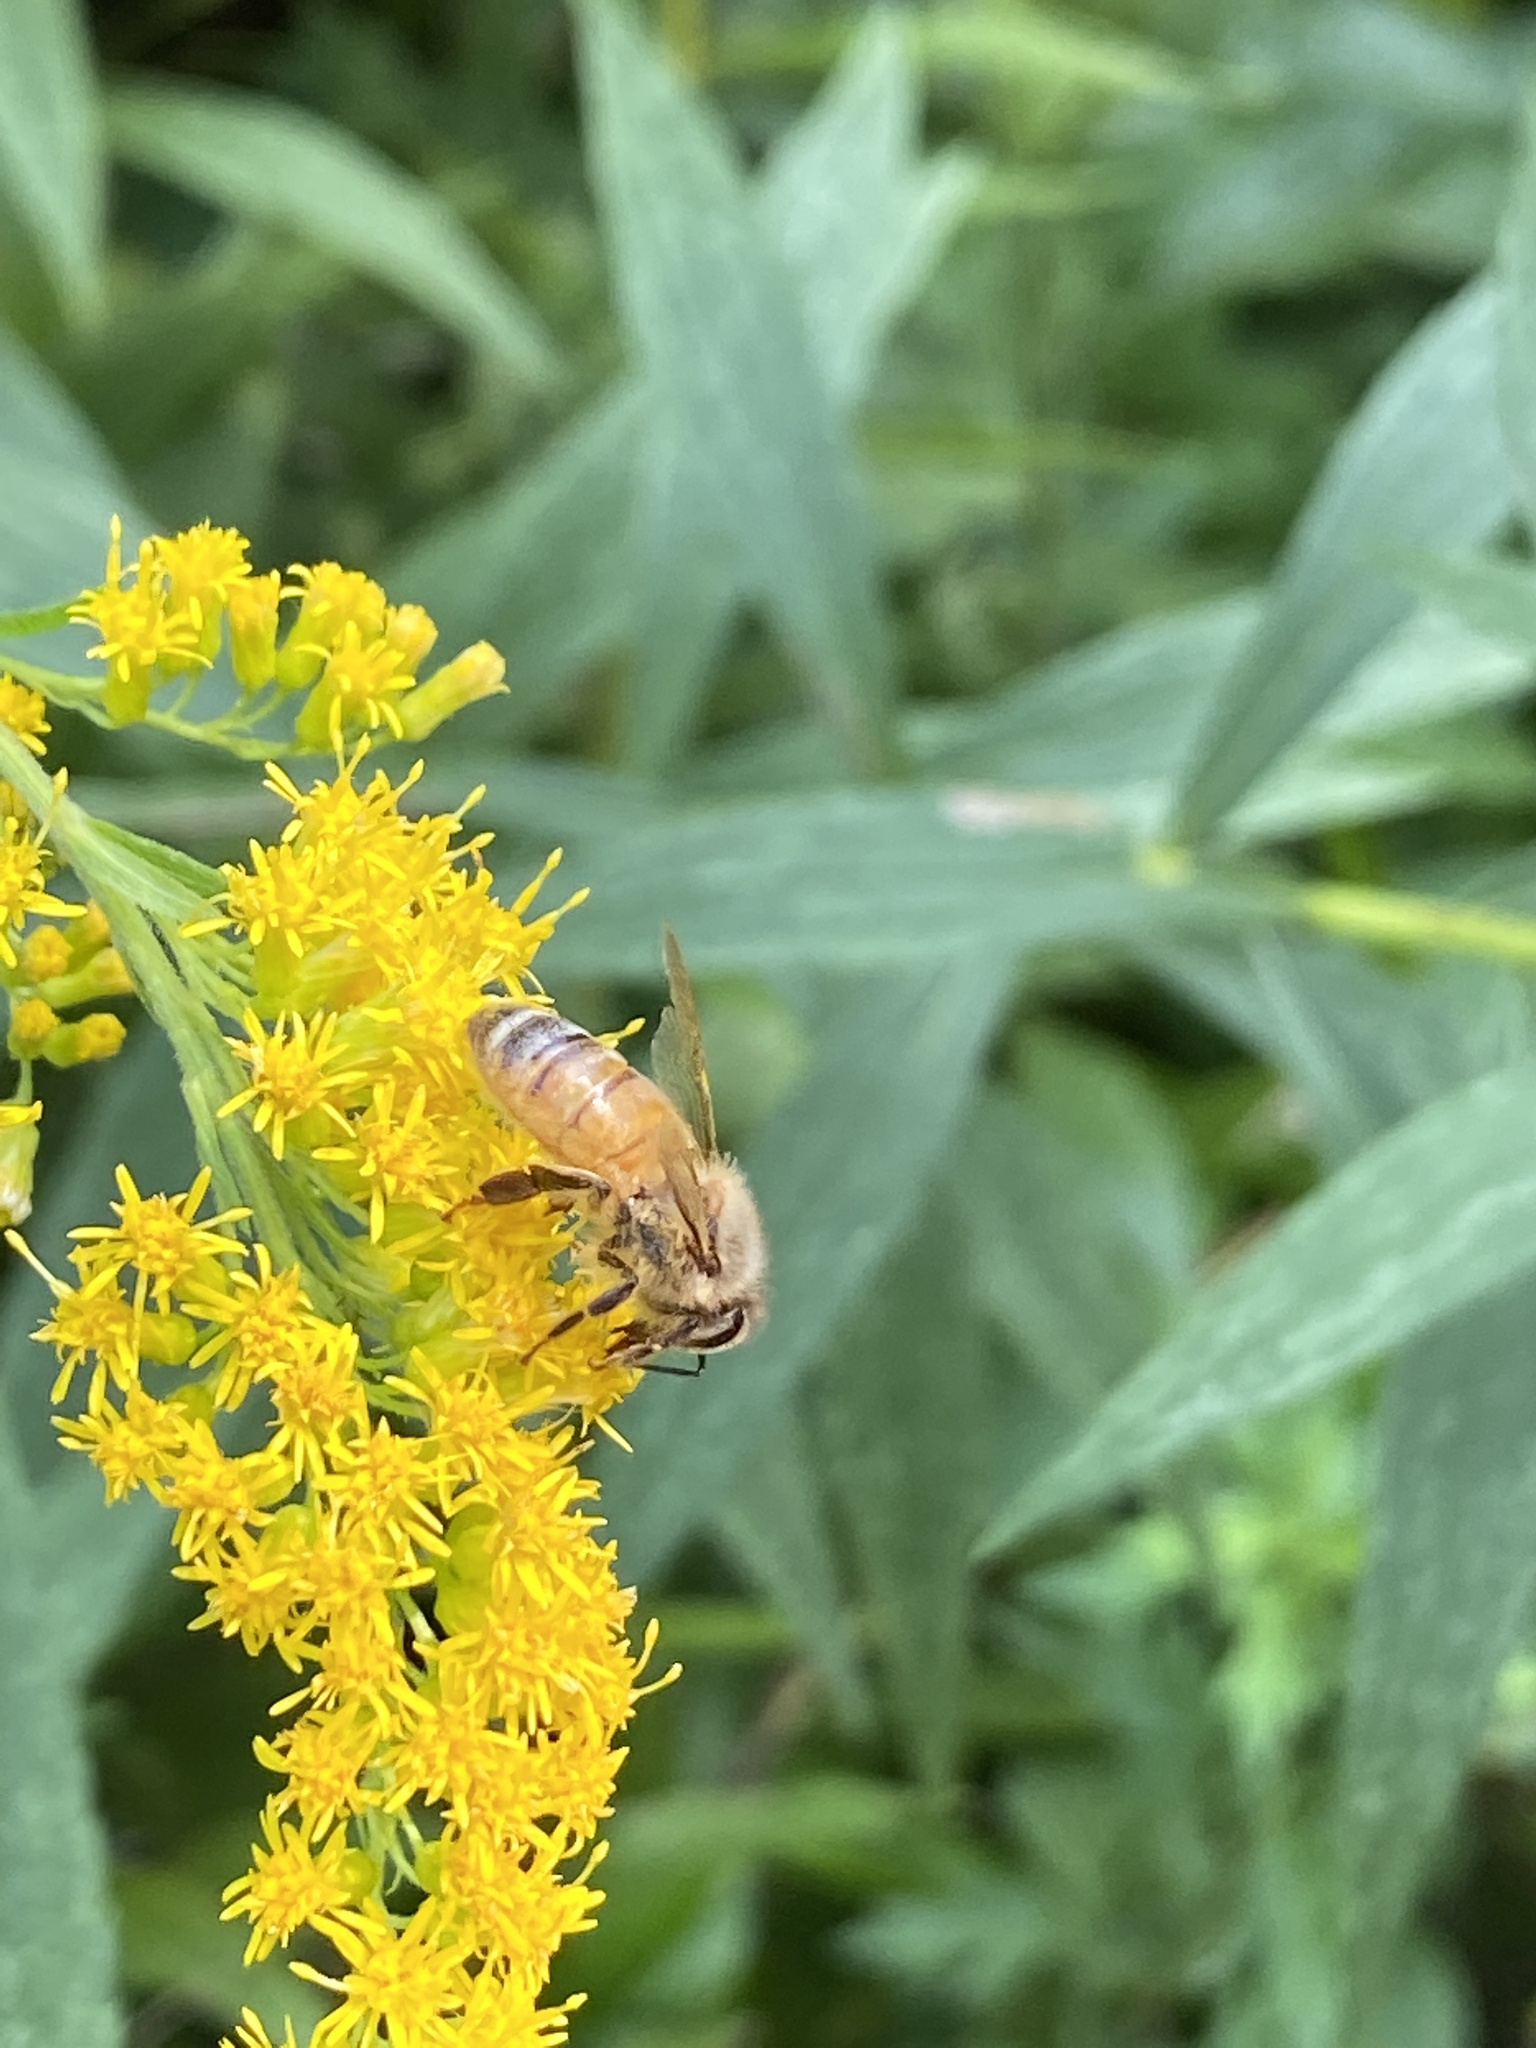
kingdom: Animalia
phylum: Arthropoda
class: Insecta
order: Hymenoptera
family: Apidae
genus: Apis
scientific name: Apis mellifera
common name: Honey bee
